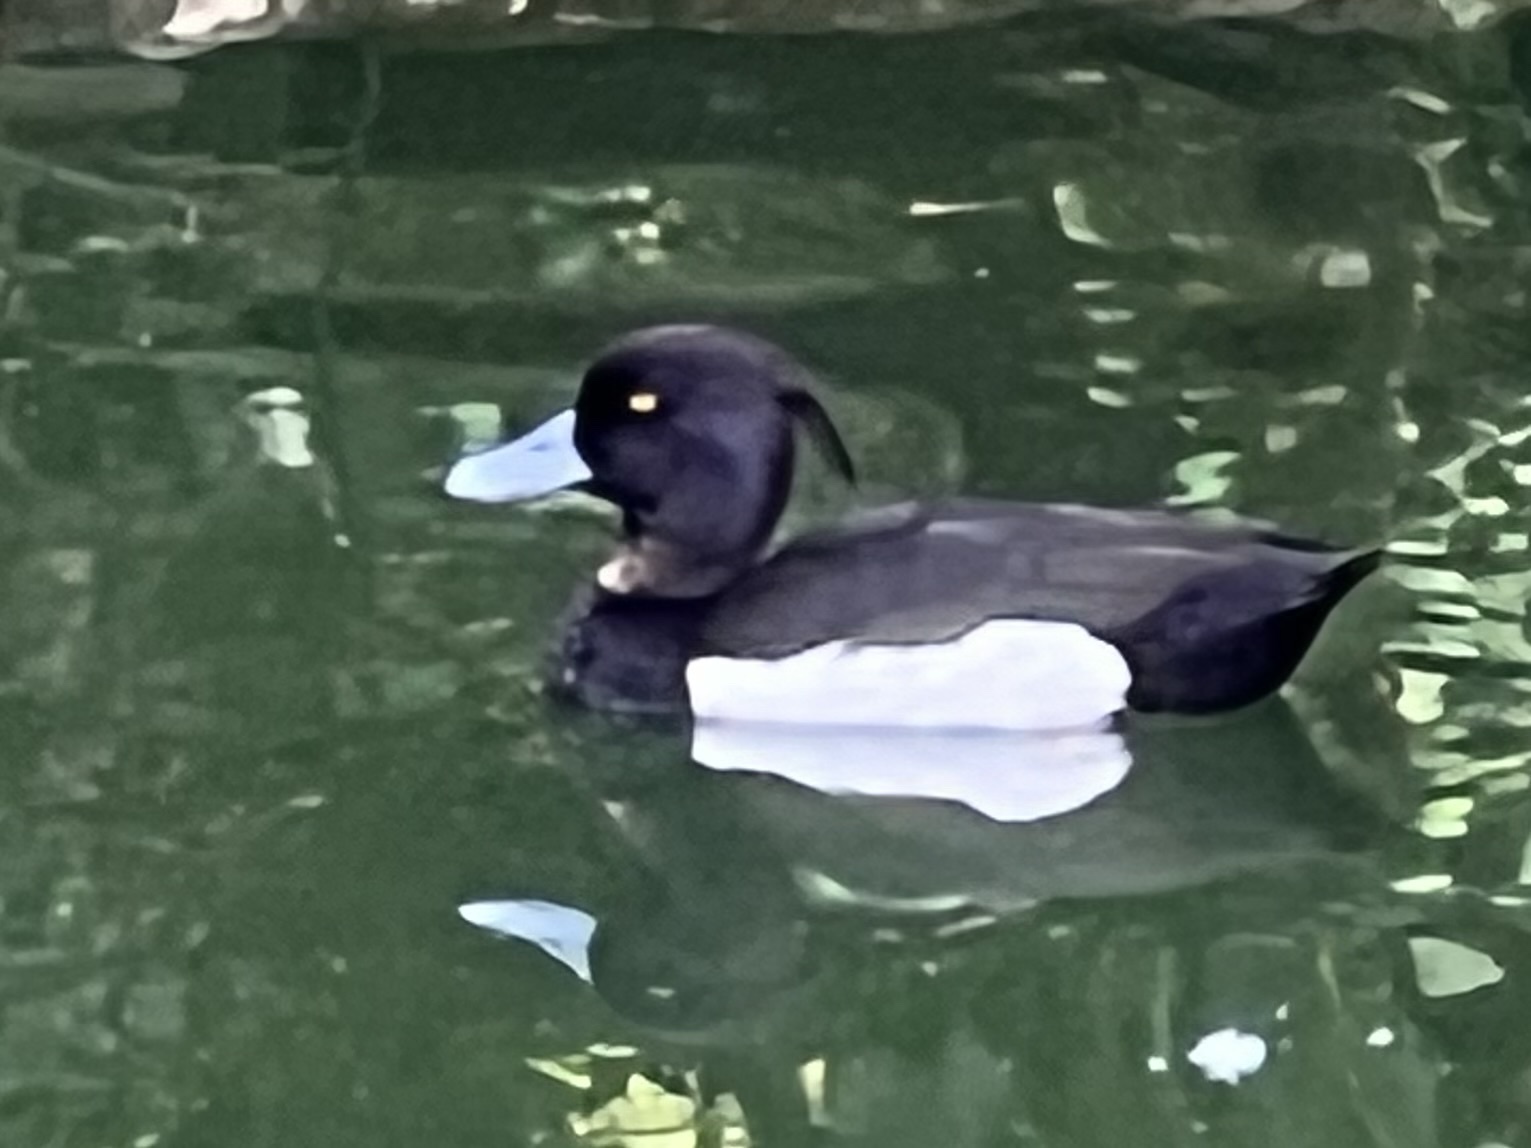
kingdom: Animalia
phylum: Chordata
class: Aves
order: Anseriformes
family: Anatidae
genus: Aythya
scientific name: Aythya fuligula
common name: Tufted duck
